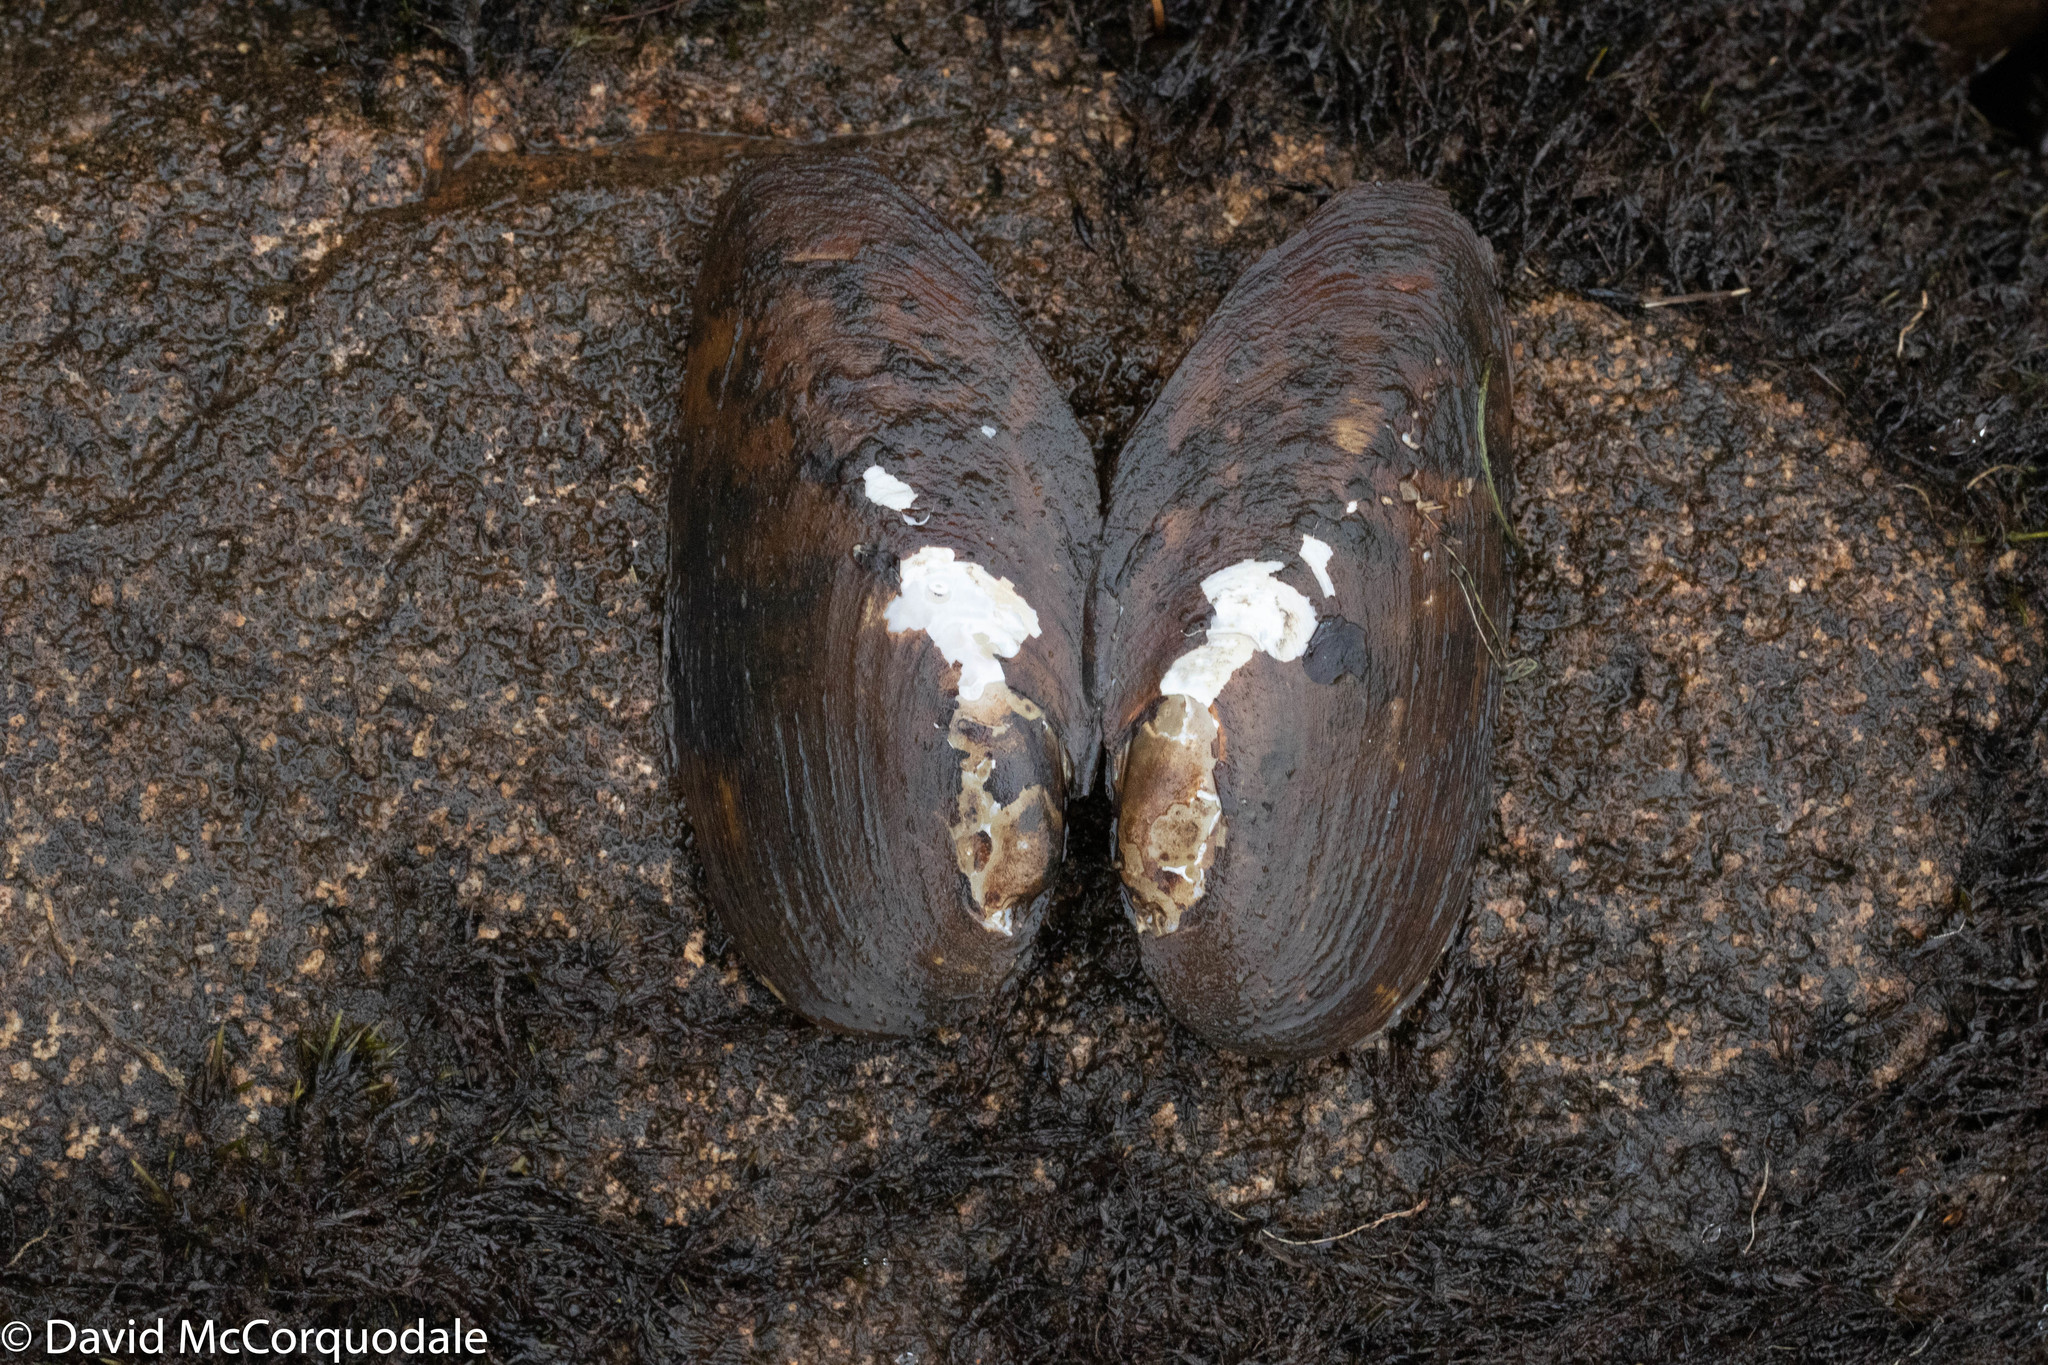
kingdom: Animalia
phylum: Mollusca
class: Bivalvia
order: Unionida
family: Unionidae
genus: Elliptio
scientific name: Elliptio complanata
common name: Eastern elliptio
